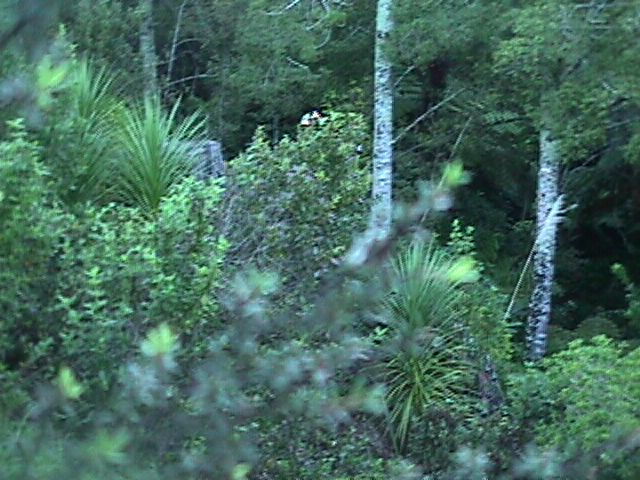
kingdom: Plantae
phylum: Tracheophyta
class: Pinopsida
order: Pinales
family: Phyllocladaceae
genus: Phyllocladus
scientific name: Phyllocladus trichomanoides
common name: Celery pine
